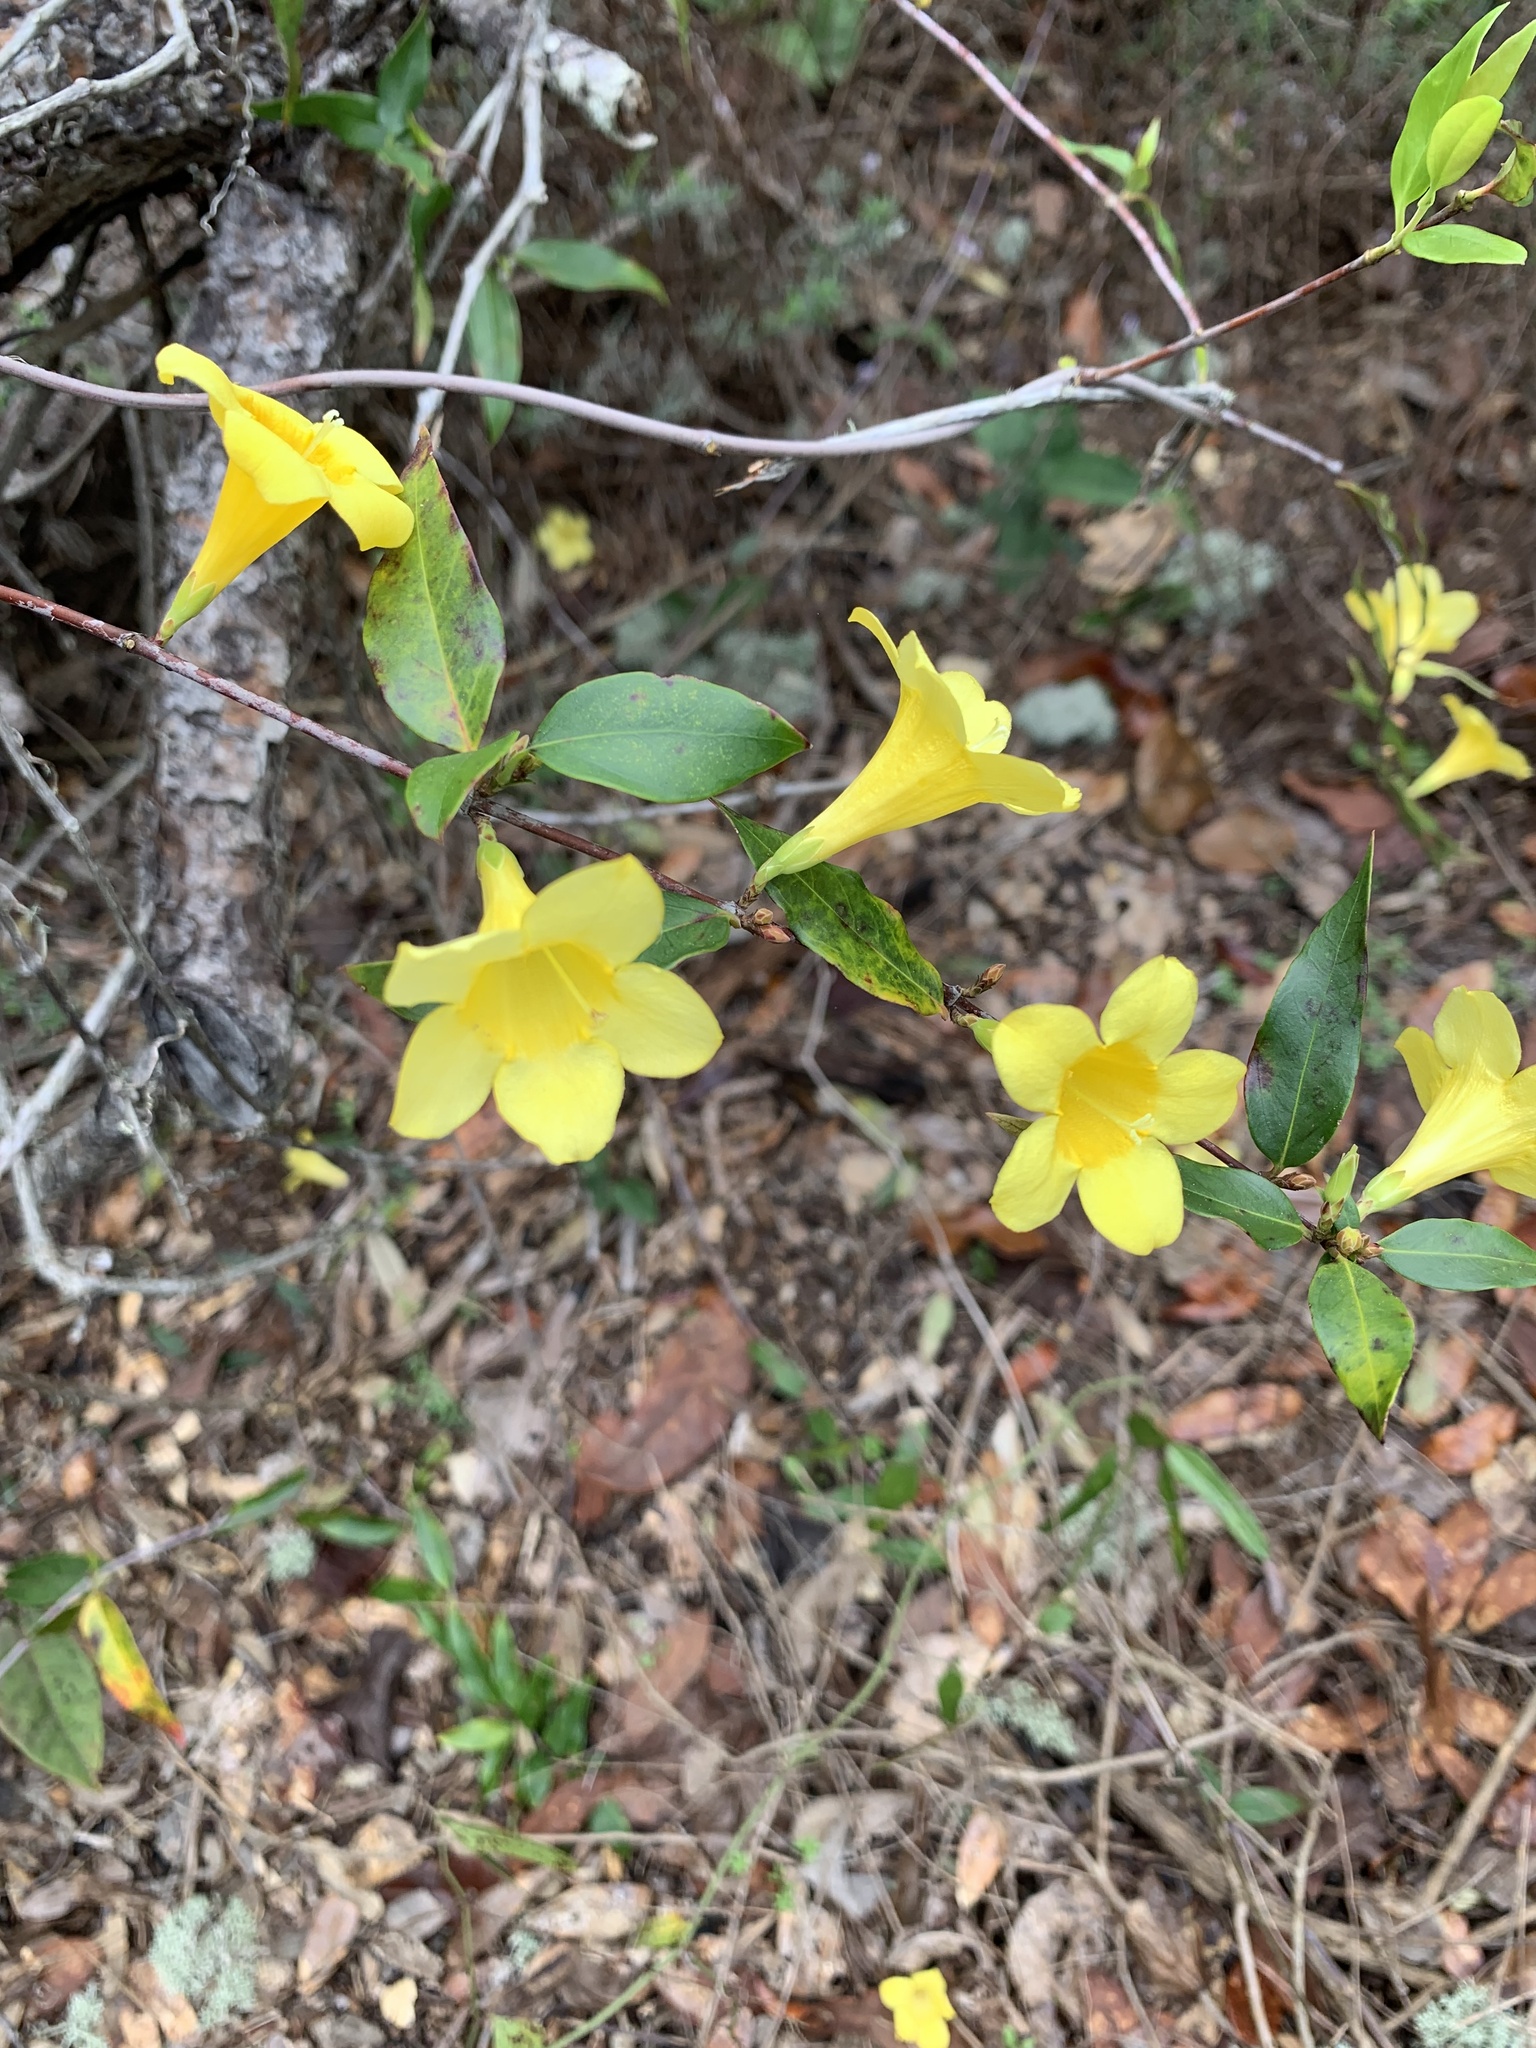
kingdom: Plantae
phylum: Tracheophyta
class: Magnoliopsida
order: Gentianales
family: Gelsemiaceae
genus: Gelsemium
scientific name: Gelsemium sempervirens
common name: Carolina-jasmine
